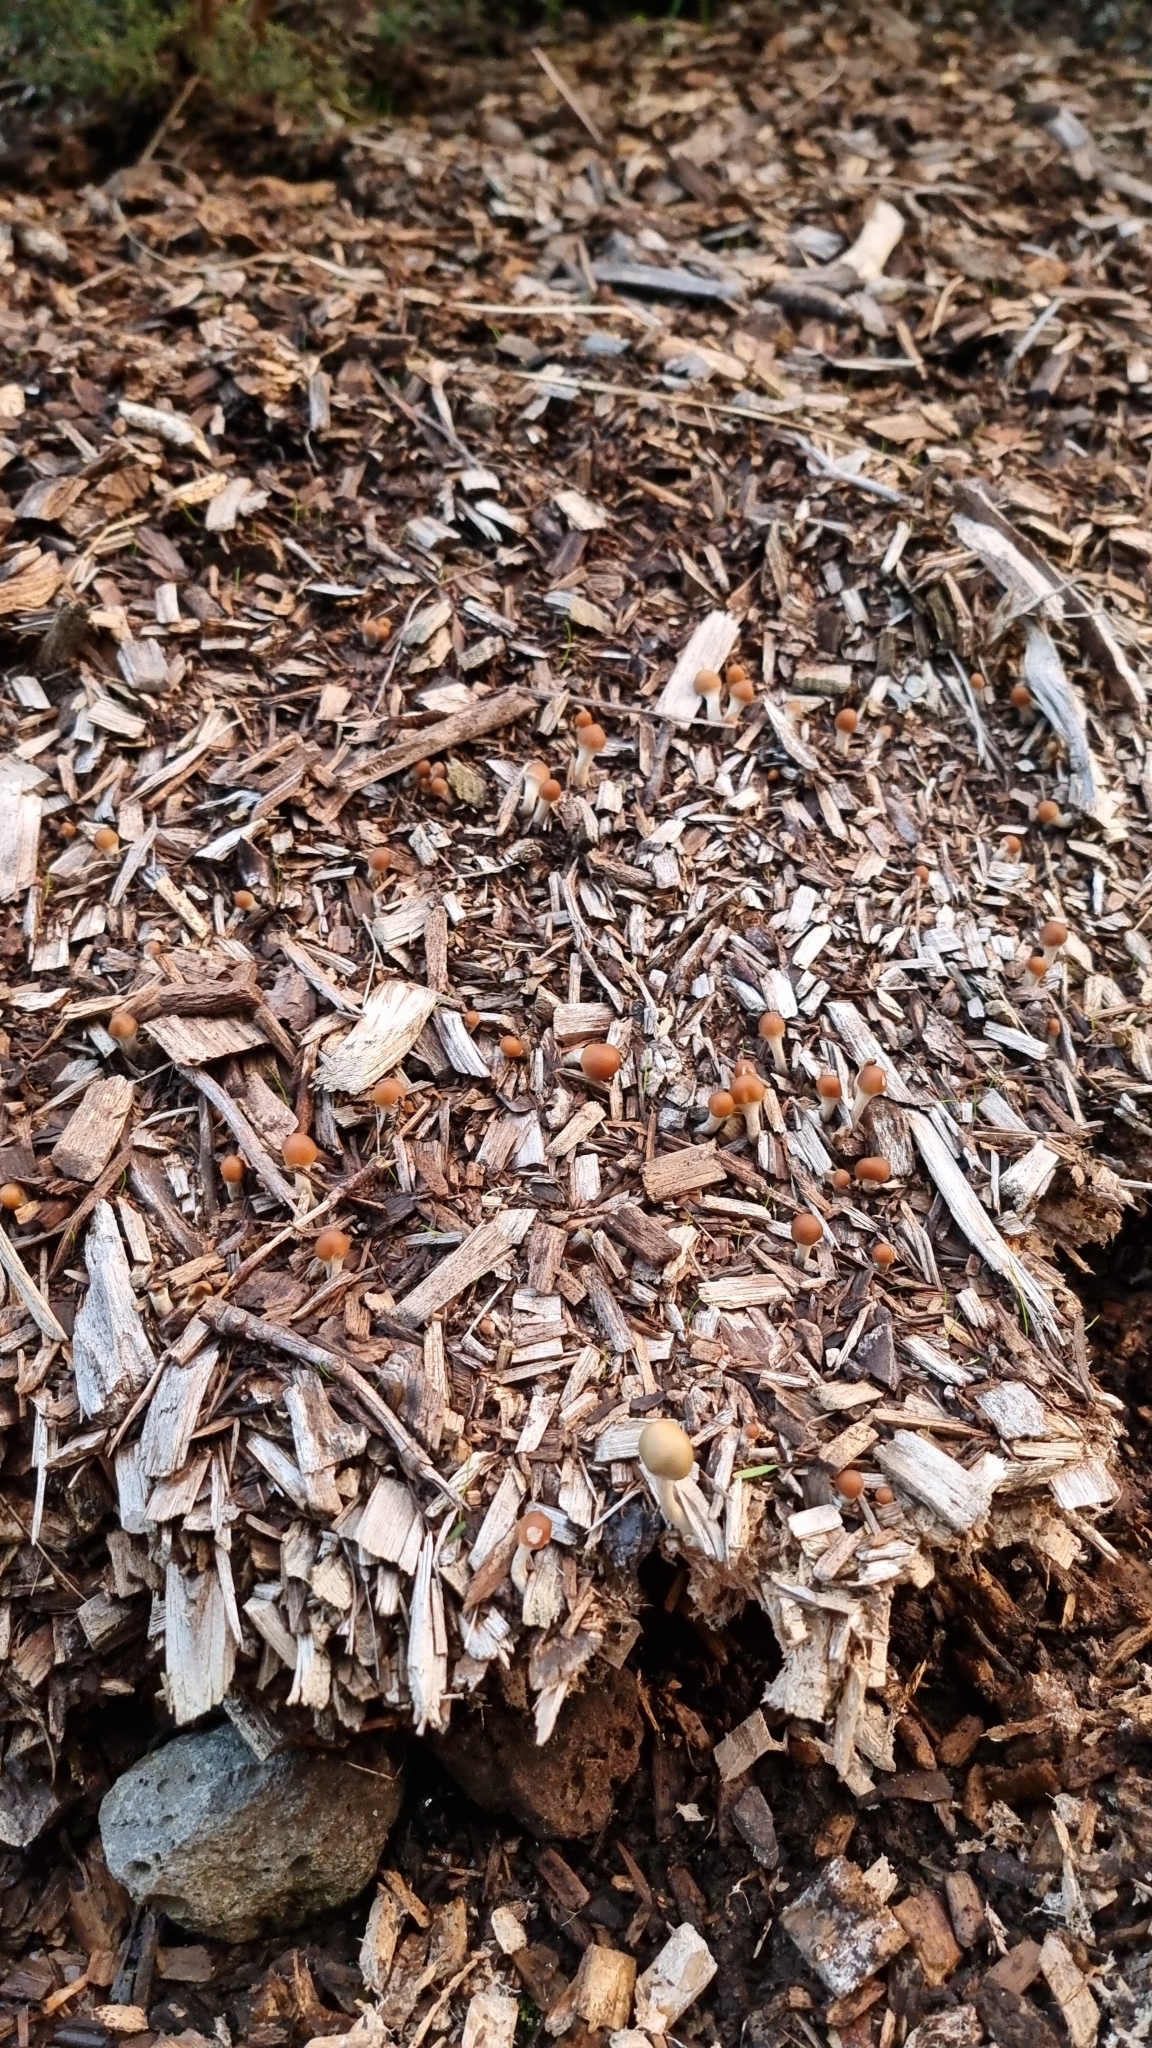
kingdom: Fungi
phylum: Basidiomycota
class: Agaricomycetes
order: Agaricales
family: Hymenogastraceae
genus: Psilocybe
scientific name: Psilocybe subaeruginosa
